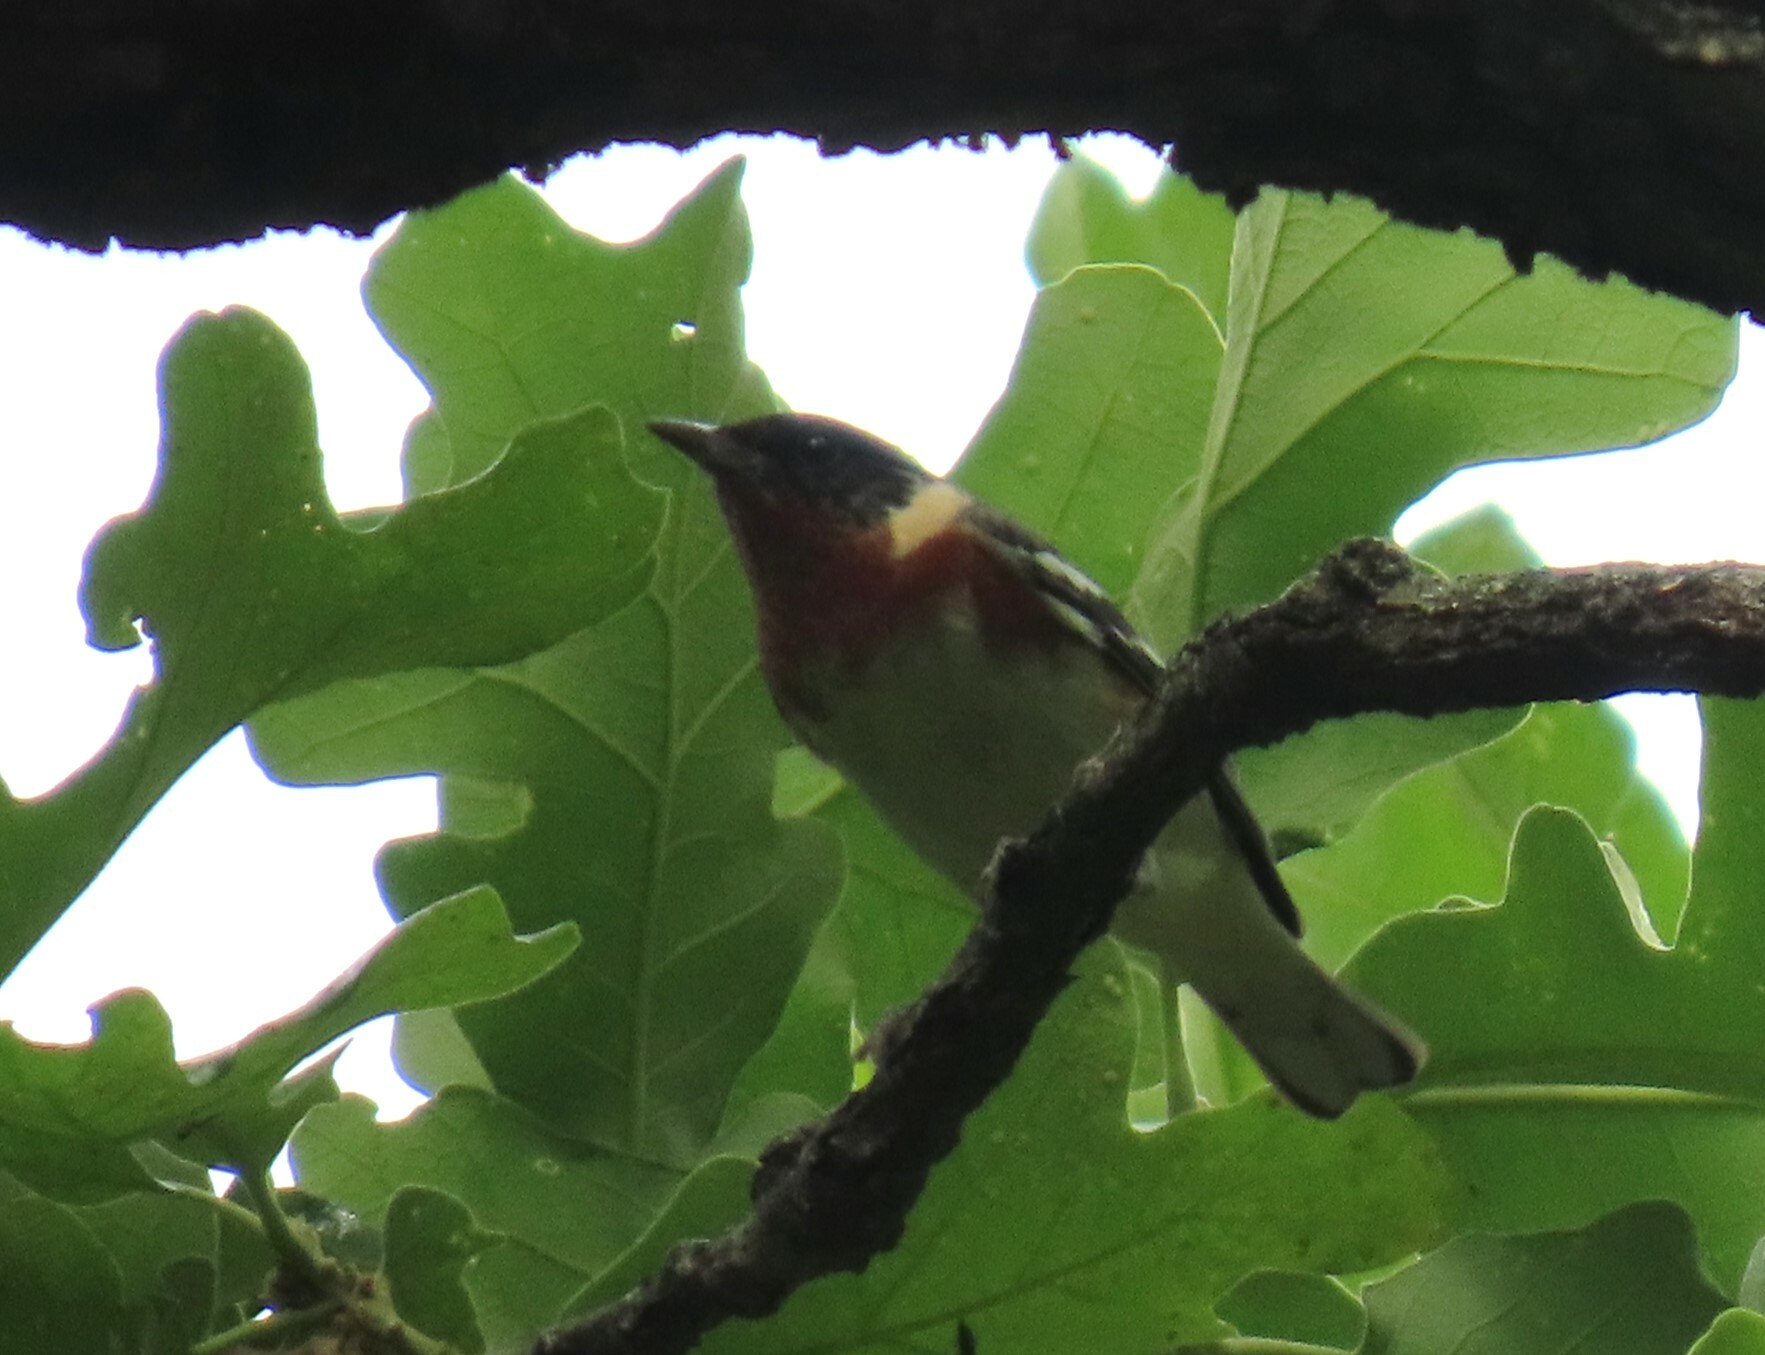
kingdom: Animalia
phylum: Chordata
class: Aves
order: Passeriformes
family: Parulidae
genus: Setophaga
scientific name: Setophaga castanea
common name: Bay-breasted warbler
